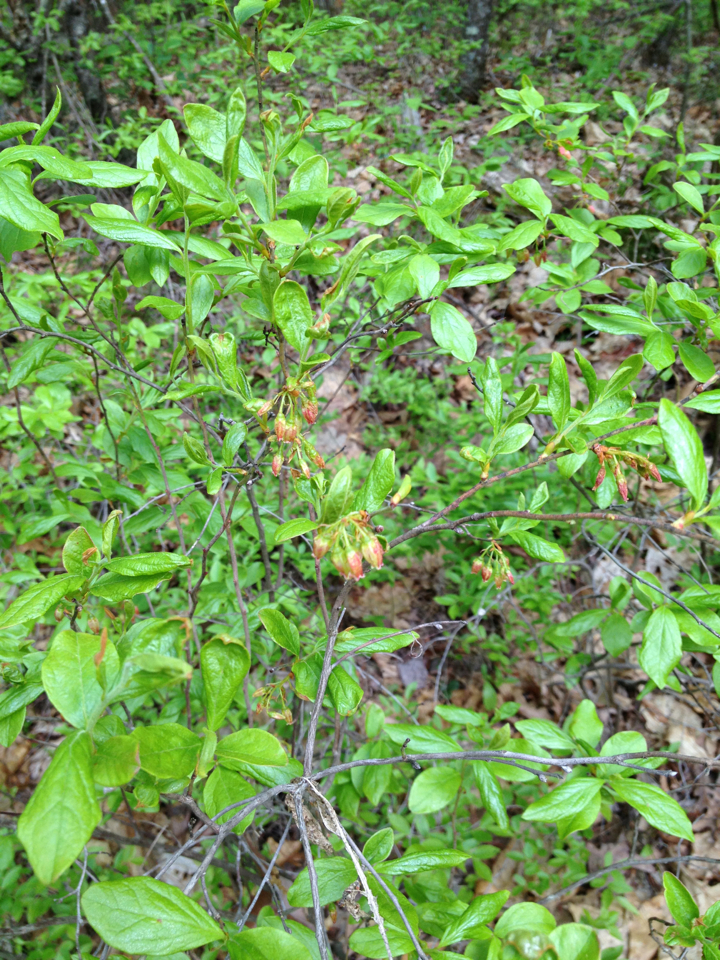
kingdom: Plantae
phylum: Tracheophyta
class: Magnoliopsida
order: Ericales
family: Ericaceae
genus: Gaylussacia
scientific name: Gaylussacia baccata
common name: Black huckleberry
